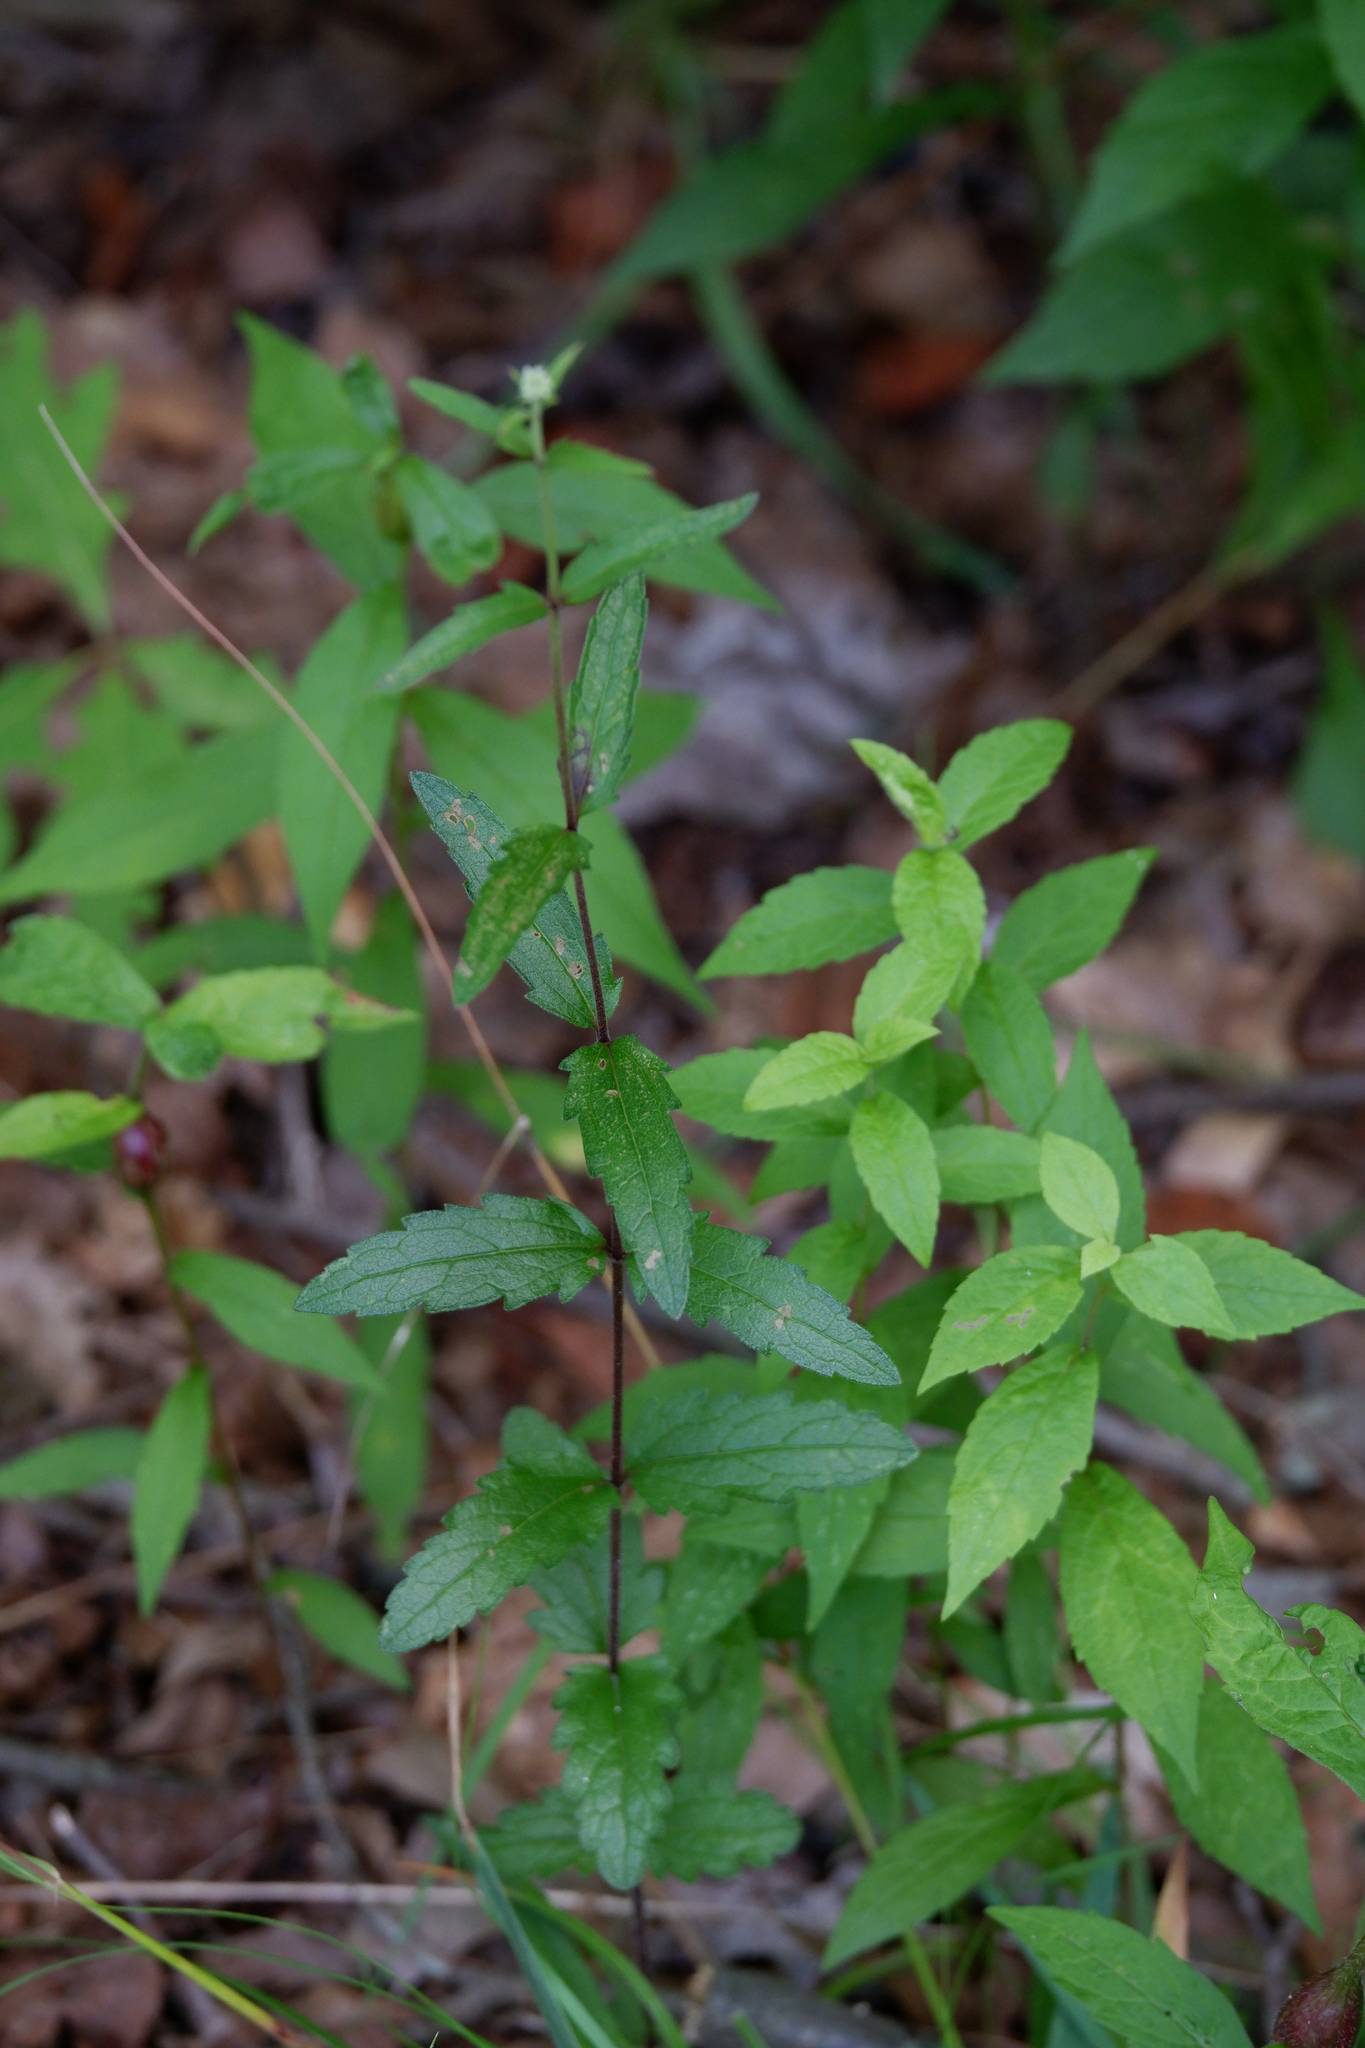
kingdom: Plantae
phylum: Tracheophyta
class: Magnoliopsida
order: Asterales
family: Asteraceae
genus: Eupatorium
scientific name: Eupatorium pilosum
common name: Rough boneset
